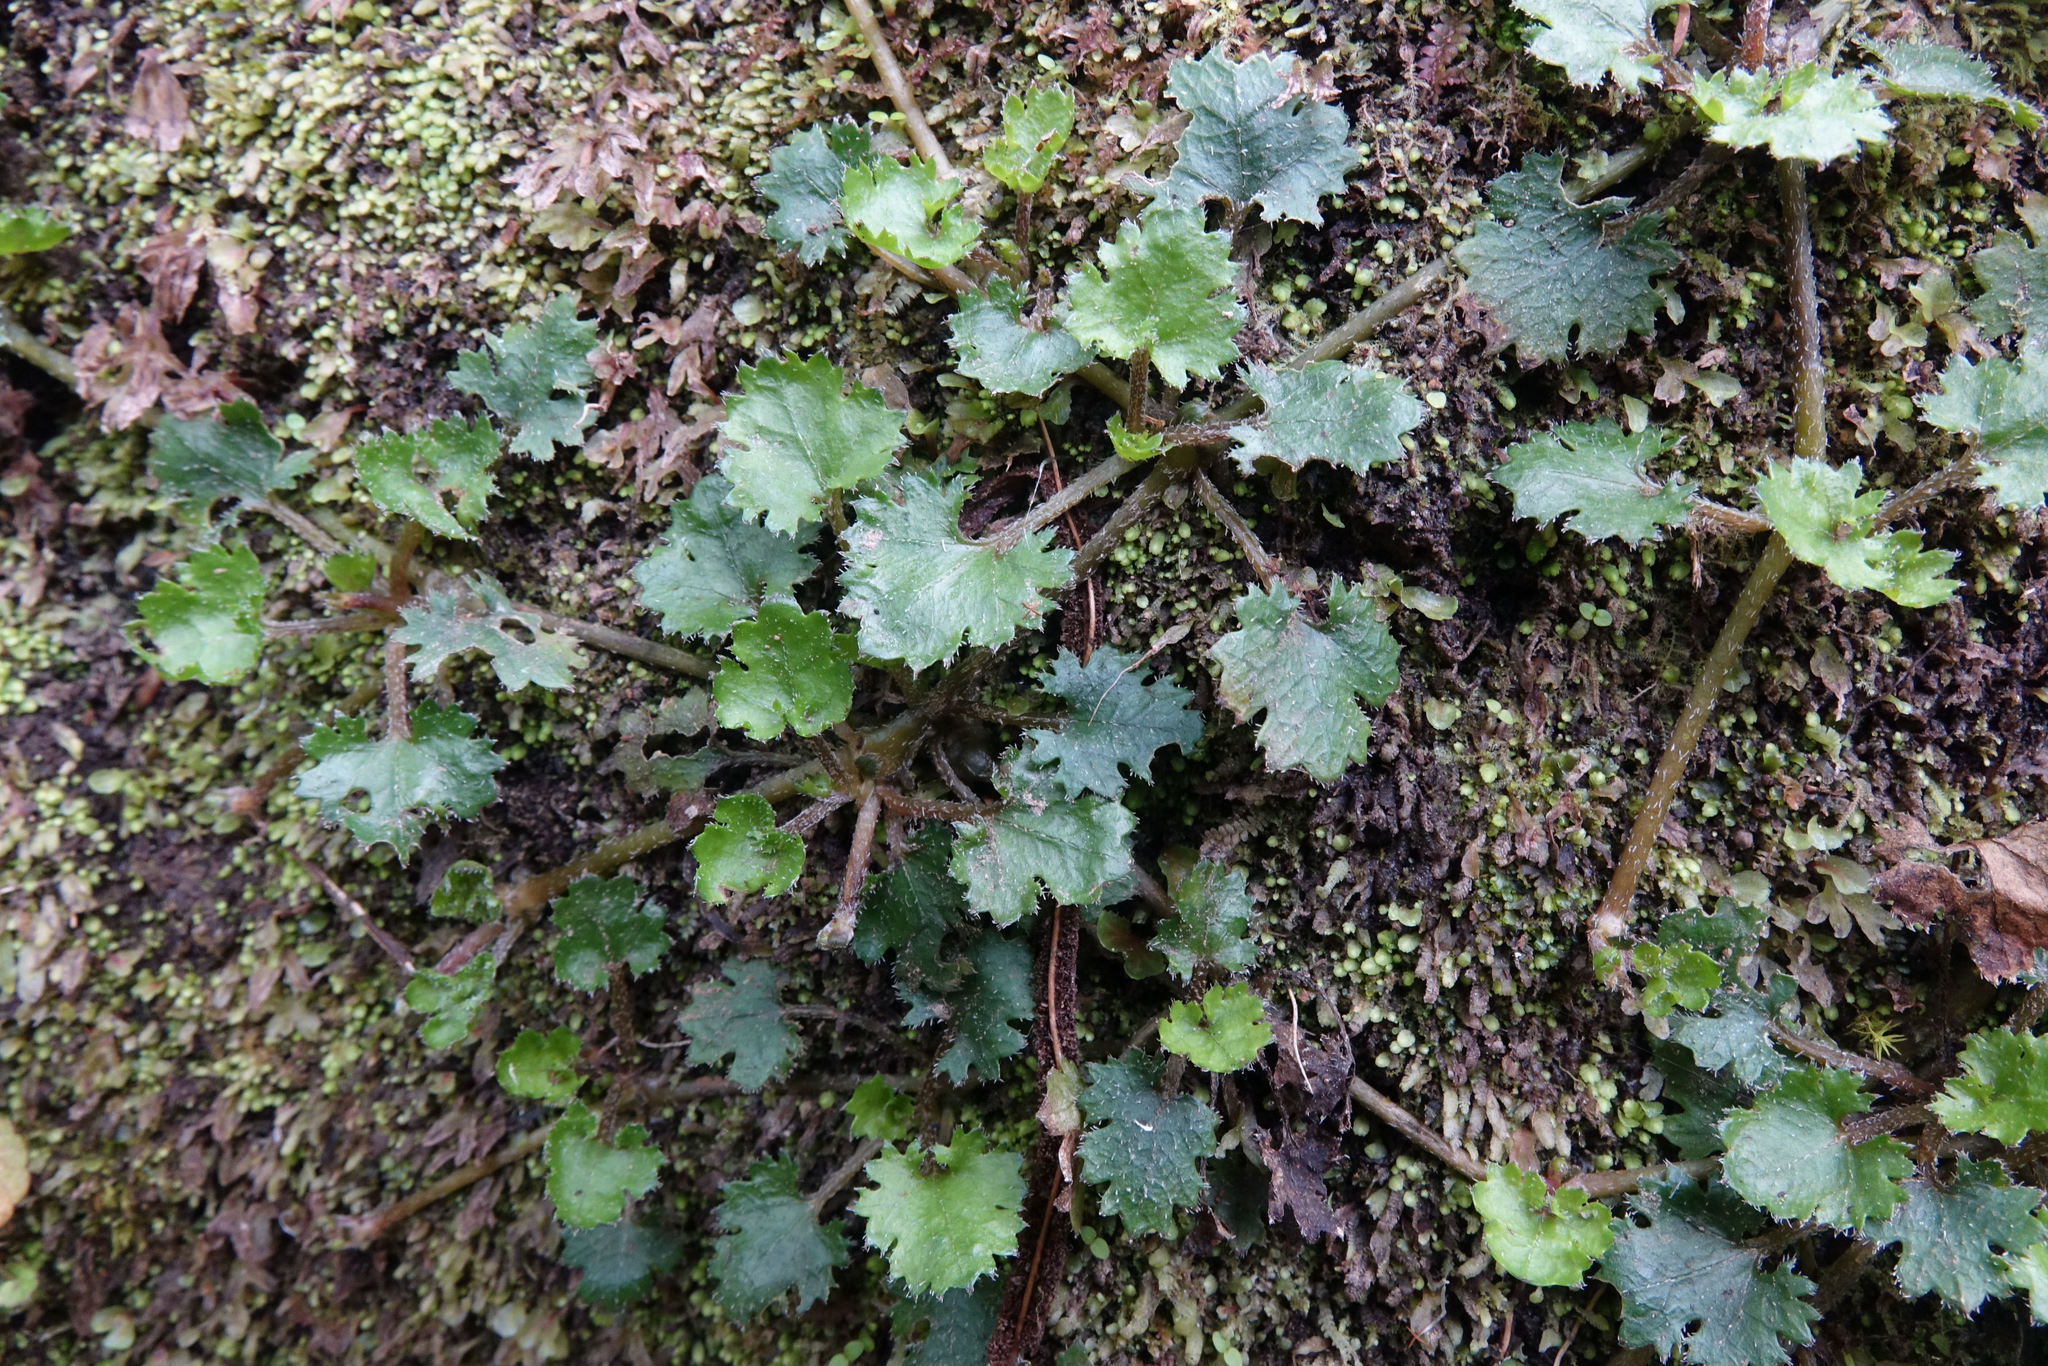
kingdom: Plantae
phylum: Tracheophyta
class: Magnoliopsida
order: Gunnerales
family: Gunneraceae
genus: Gunnera
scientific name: Gunnera monoica
